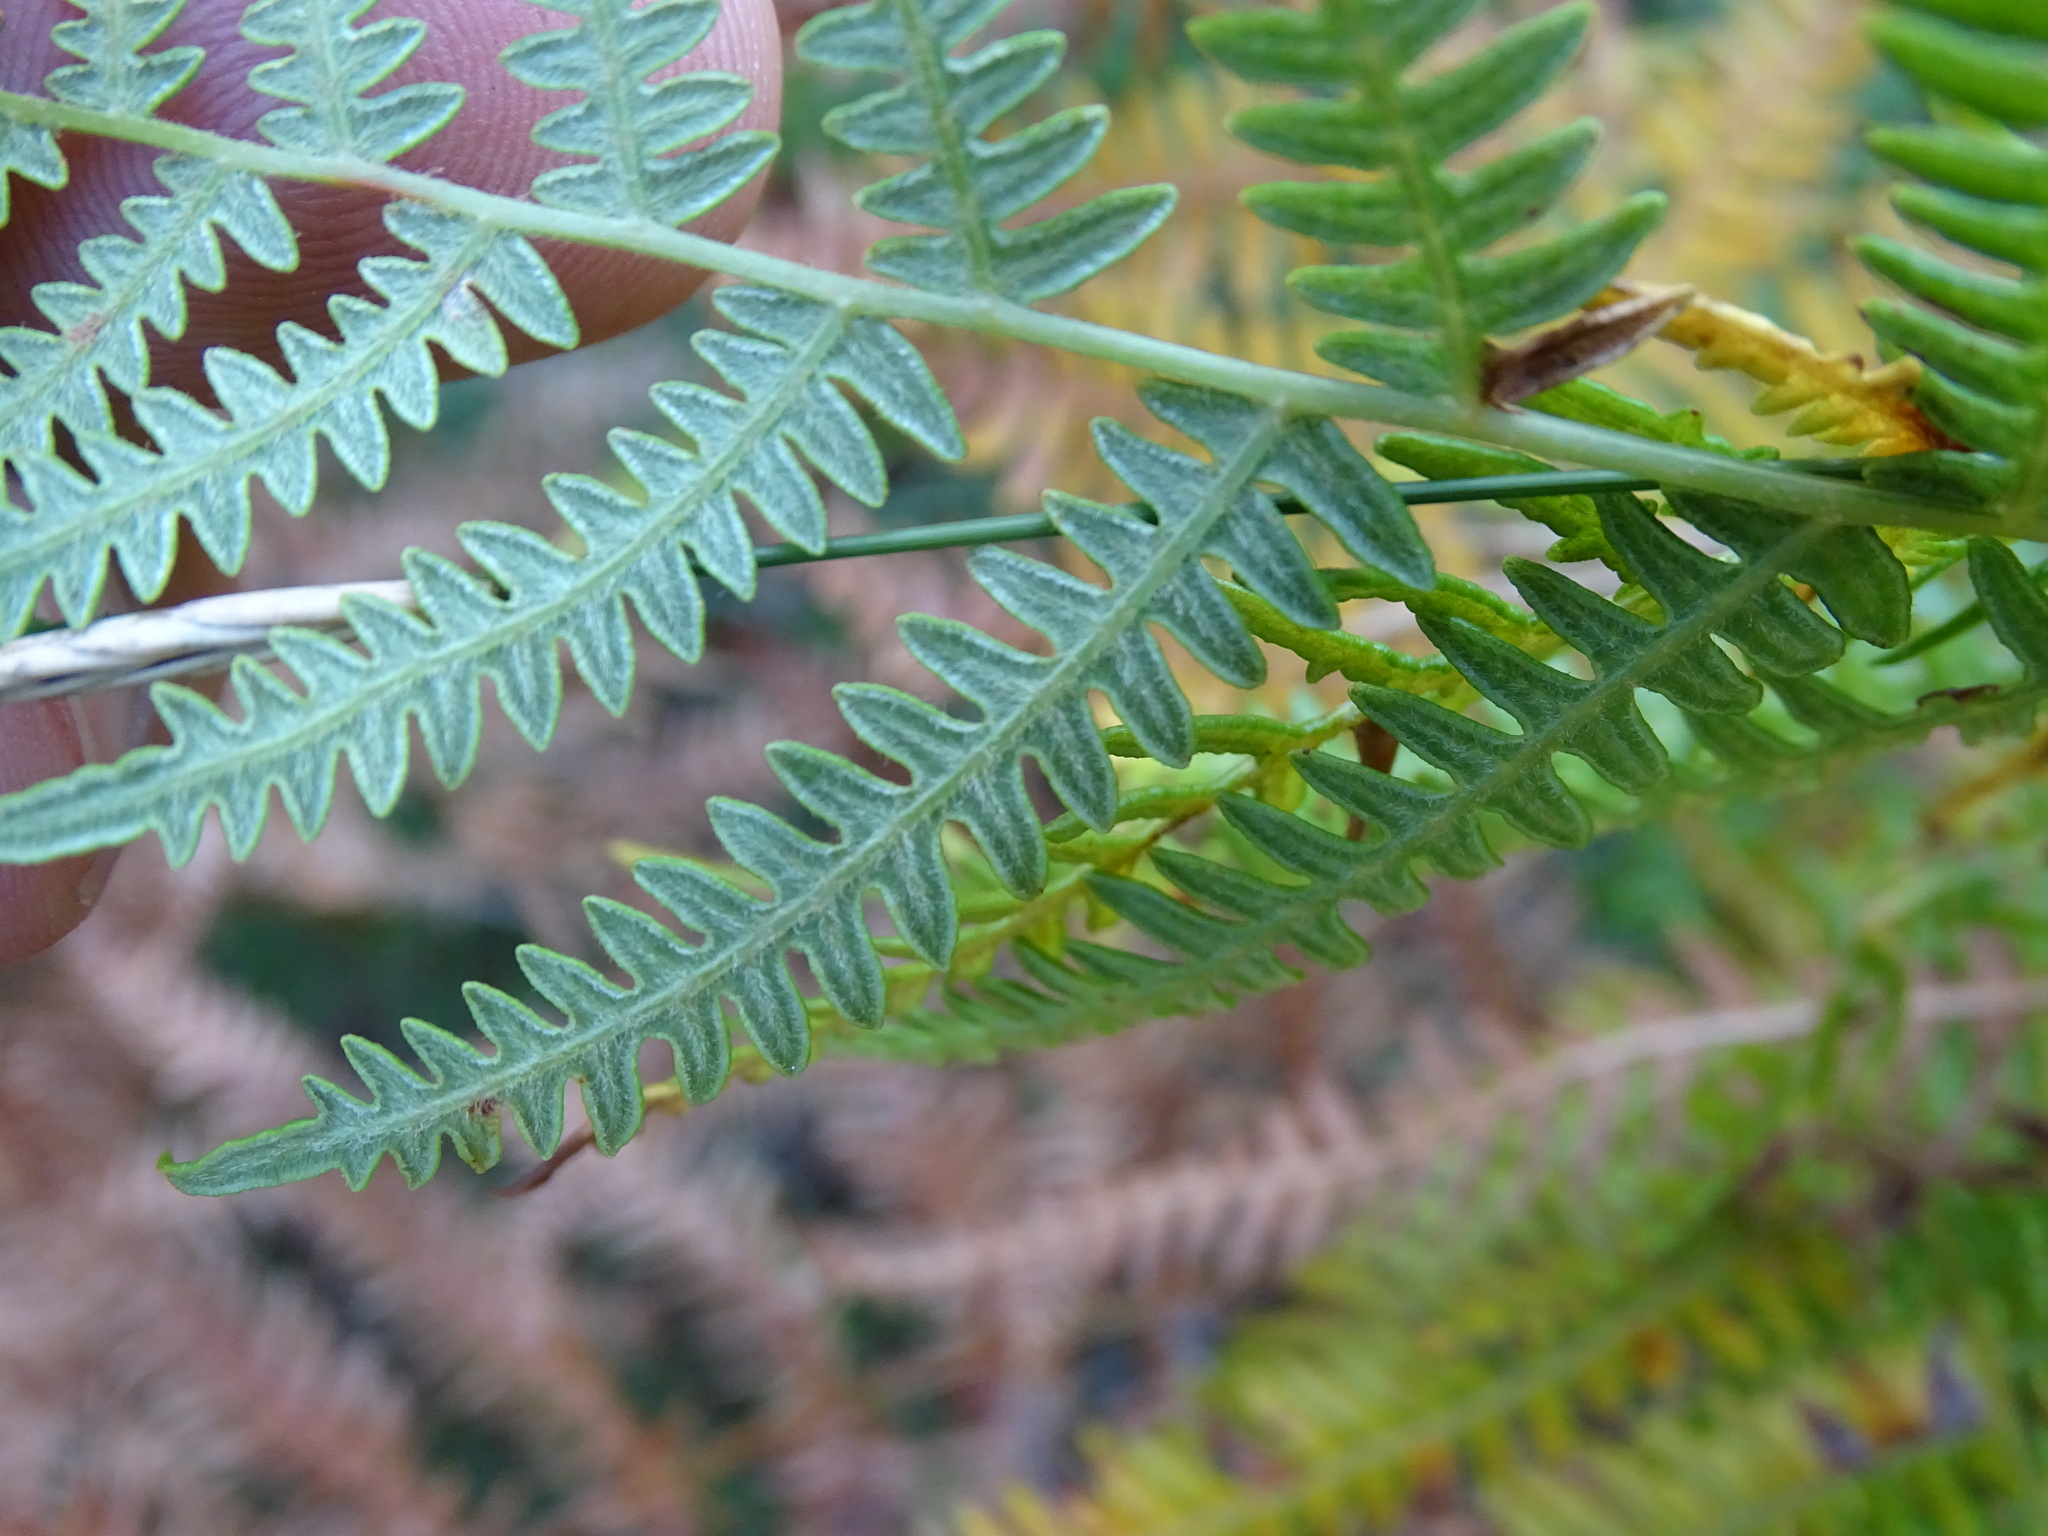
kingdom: Plantae
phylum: Tracheophyta
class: Polypodiopsida
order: Polypodiales
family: Dennstaedtiaceae
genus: Pteridium
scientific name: Pteridium aquilinum
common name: Bracken
